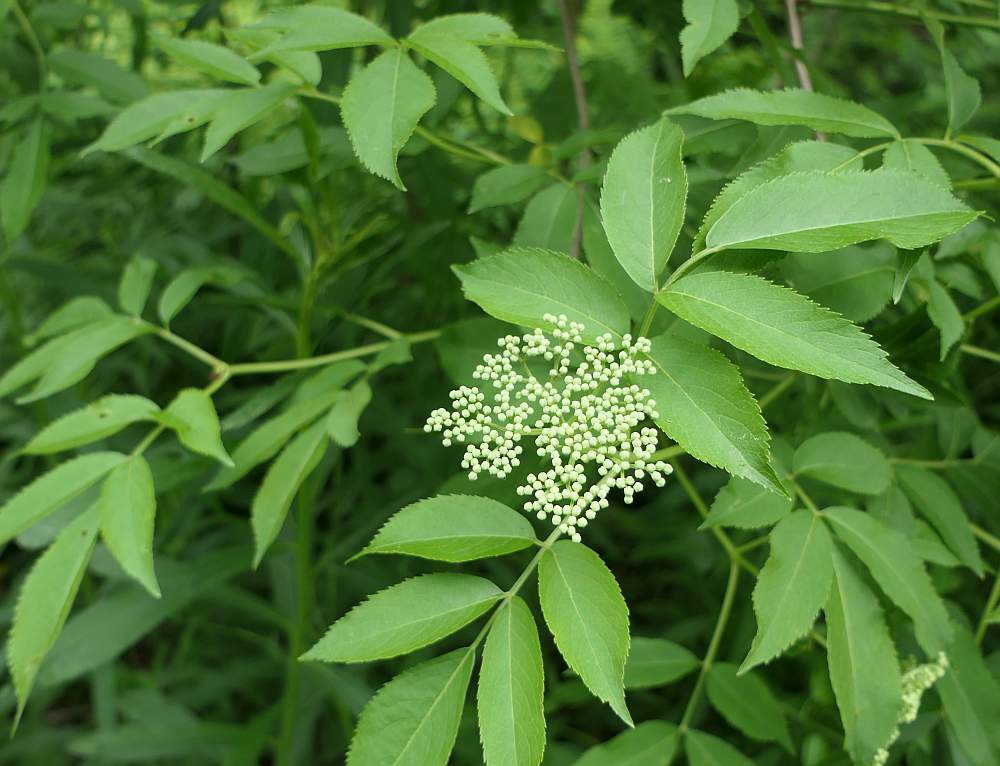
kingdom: Plantae
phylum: Tracheophyta
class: Magnoliopsida
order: Dipsacales
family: Viburnaceae
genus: Sambucus
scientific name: Sambucus canadensis
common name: American elder
